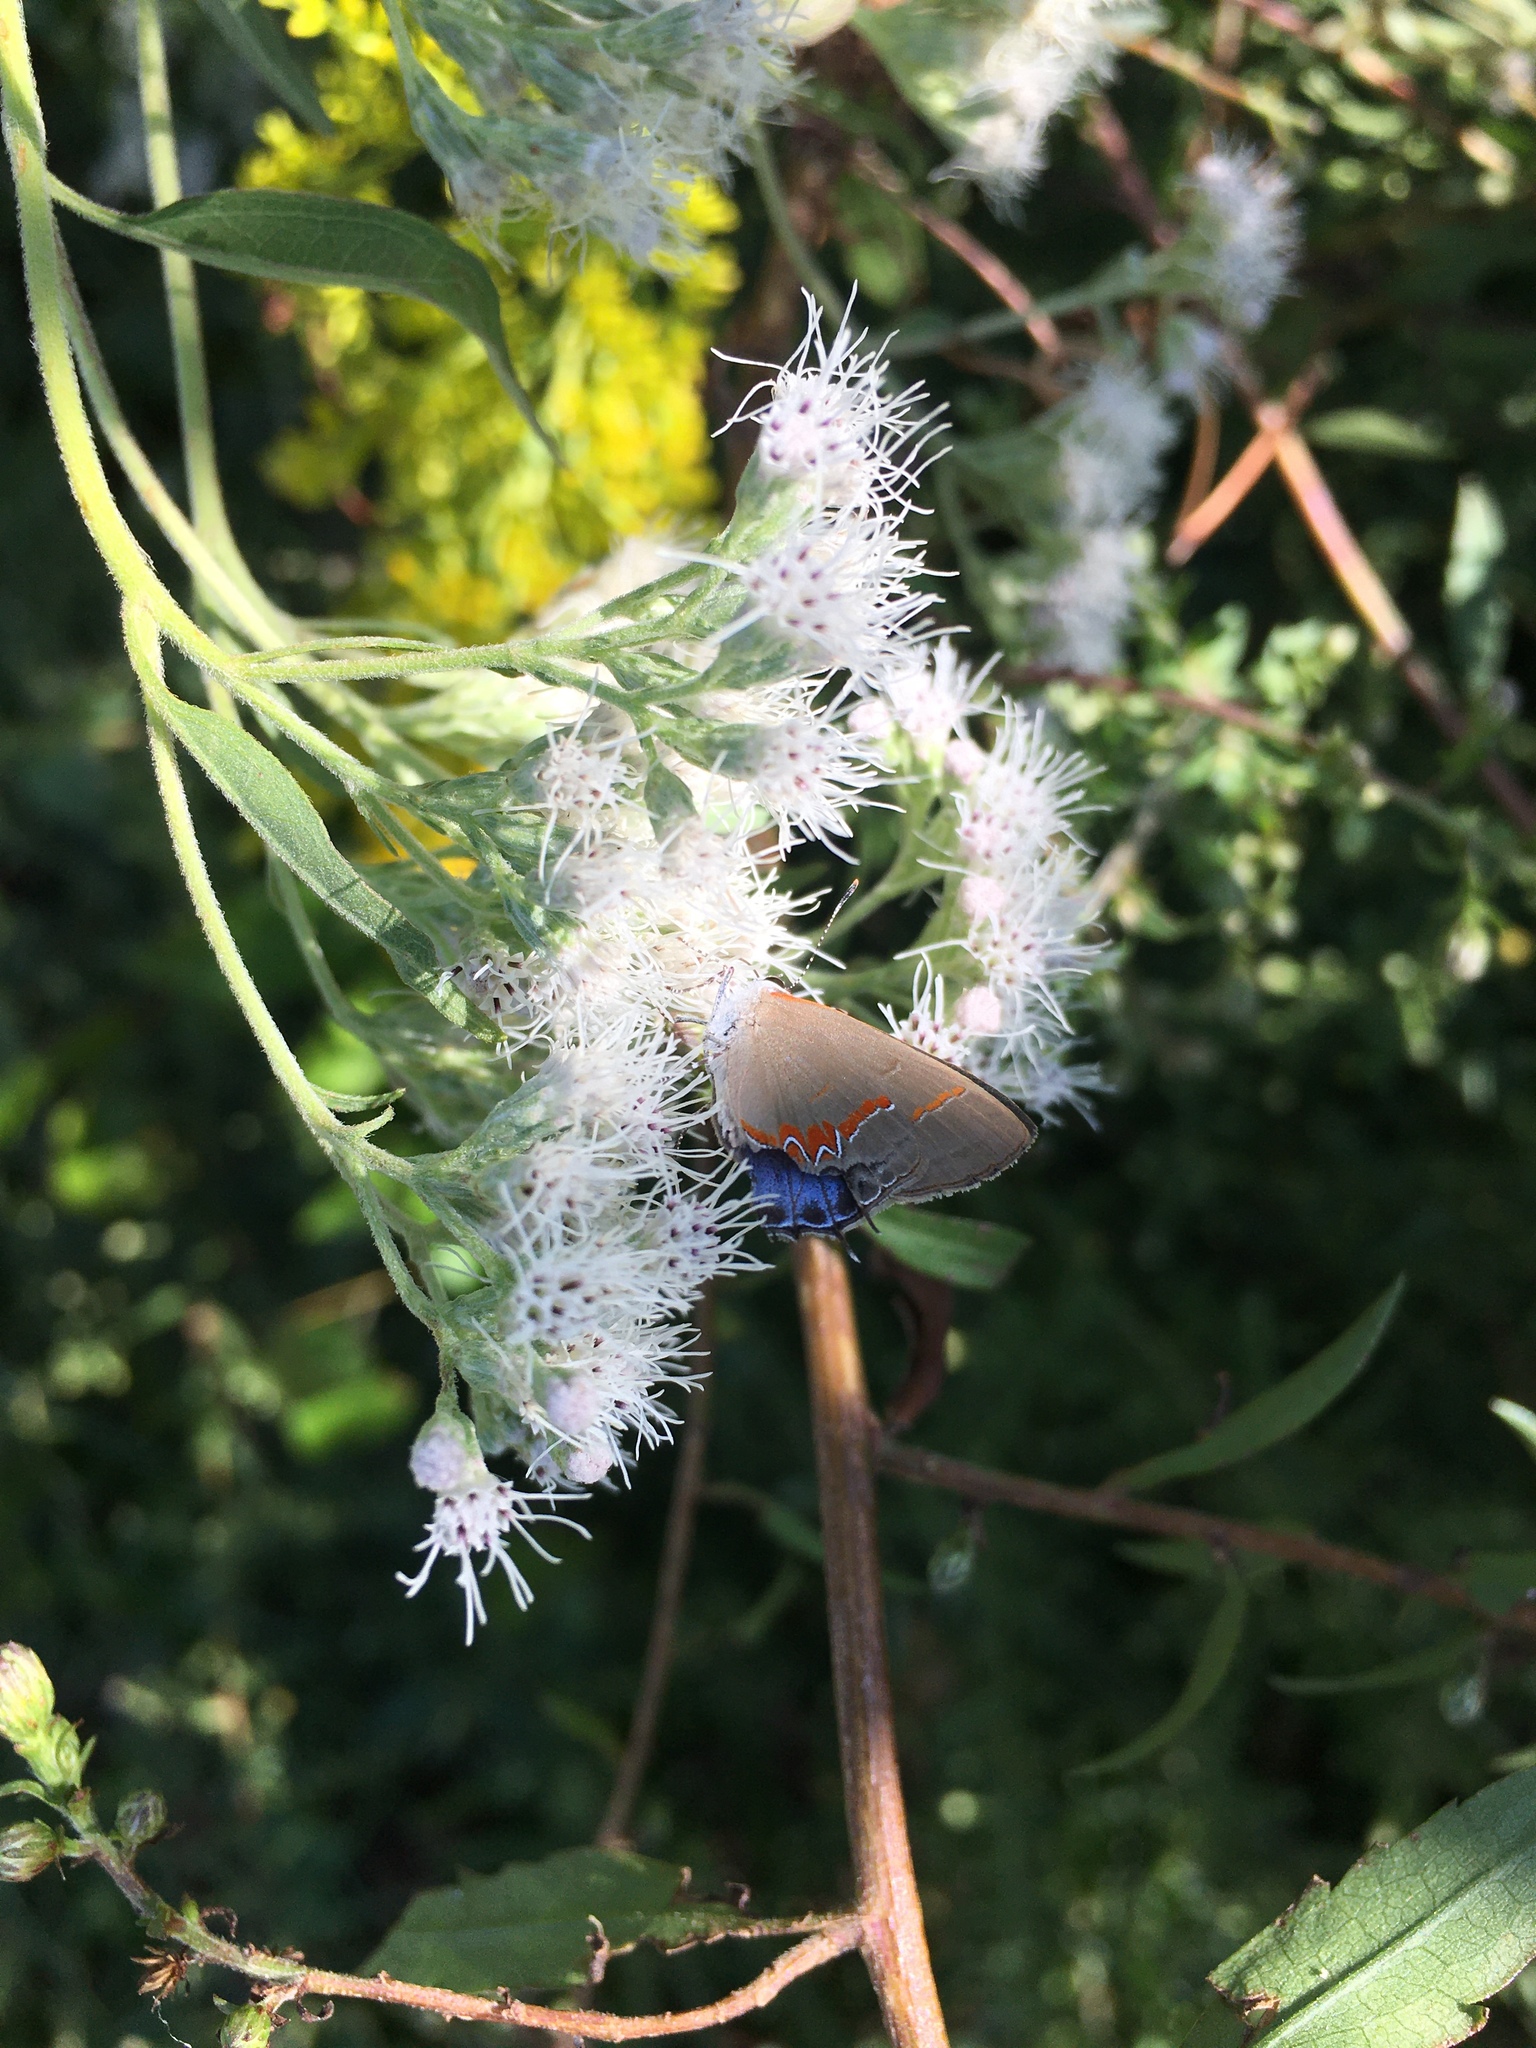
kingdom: Animalia
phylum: Arthropoda
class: Insecta
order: Lepidoptera
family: Lycaenidae
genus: Calycopis
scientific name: Calycopis cecrops
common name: Red-banded hairstreak
